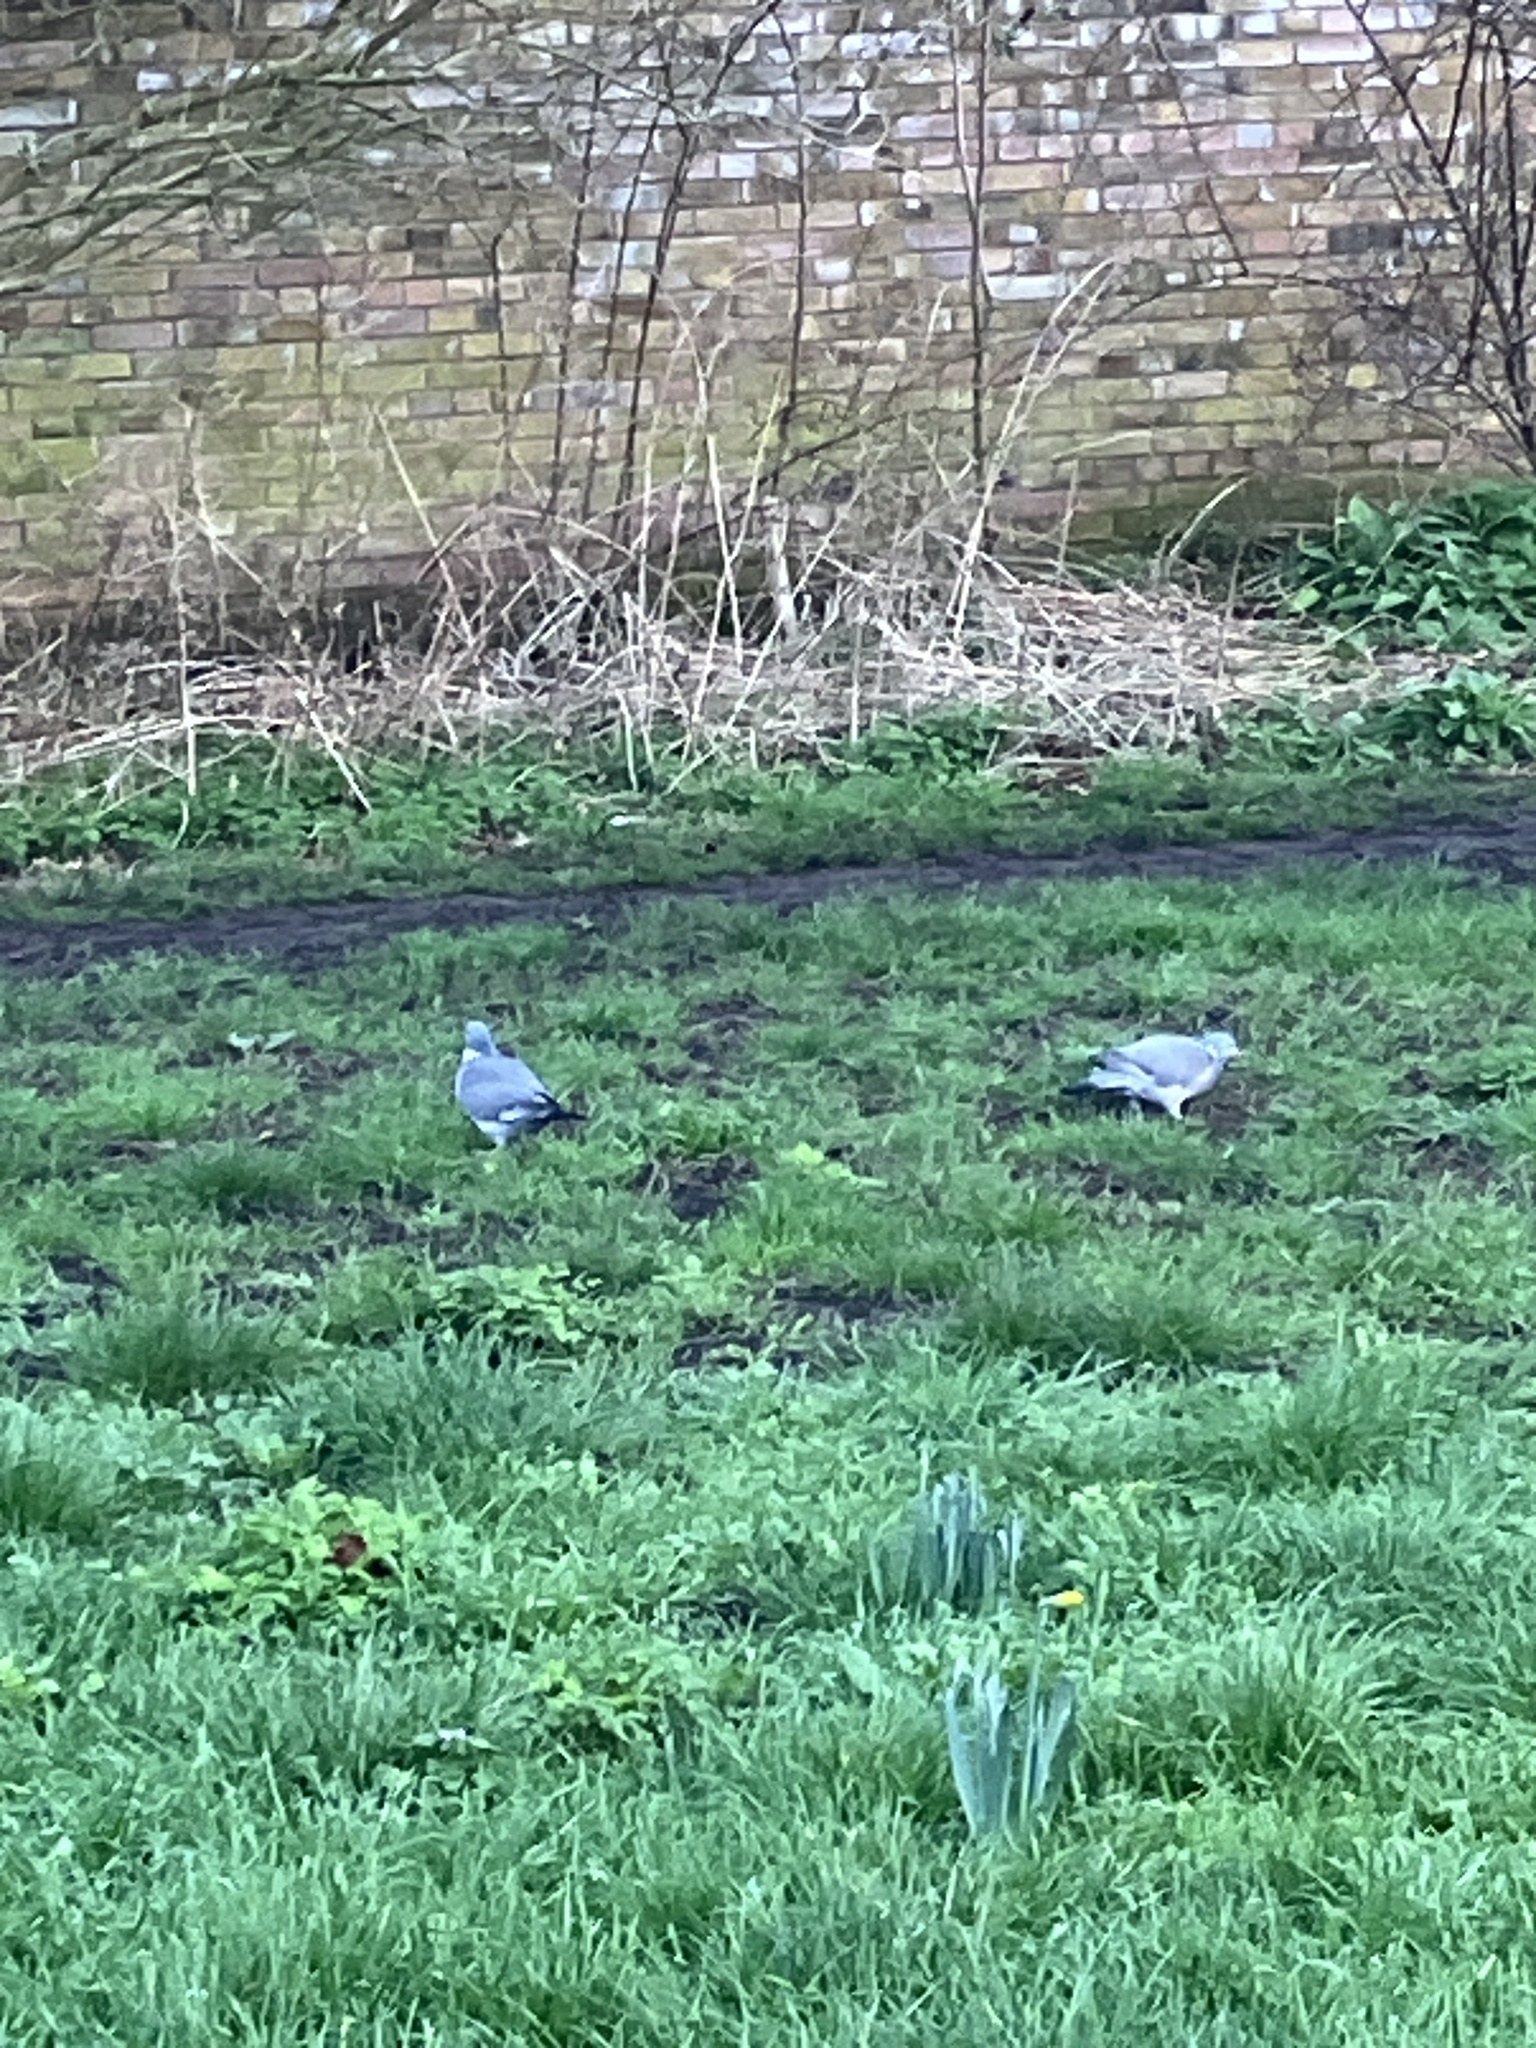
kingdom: Animalia
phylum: Chordata
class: Aves
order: Columbiformes
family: Columbidae
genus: Columba
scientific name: Columba palumbus
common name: Common wood pigeon
